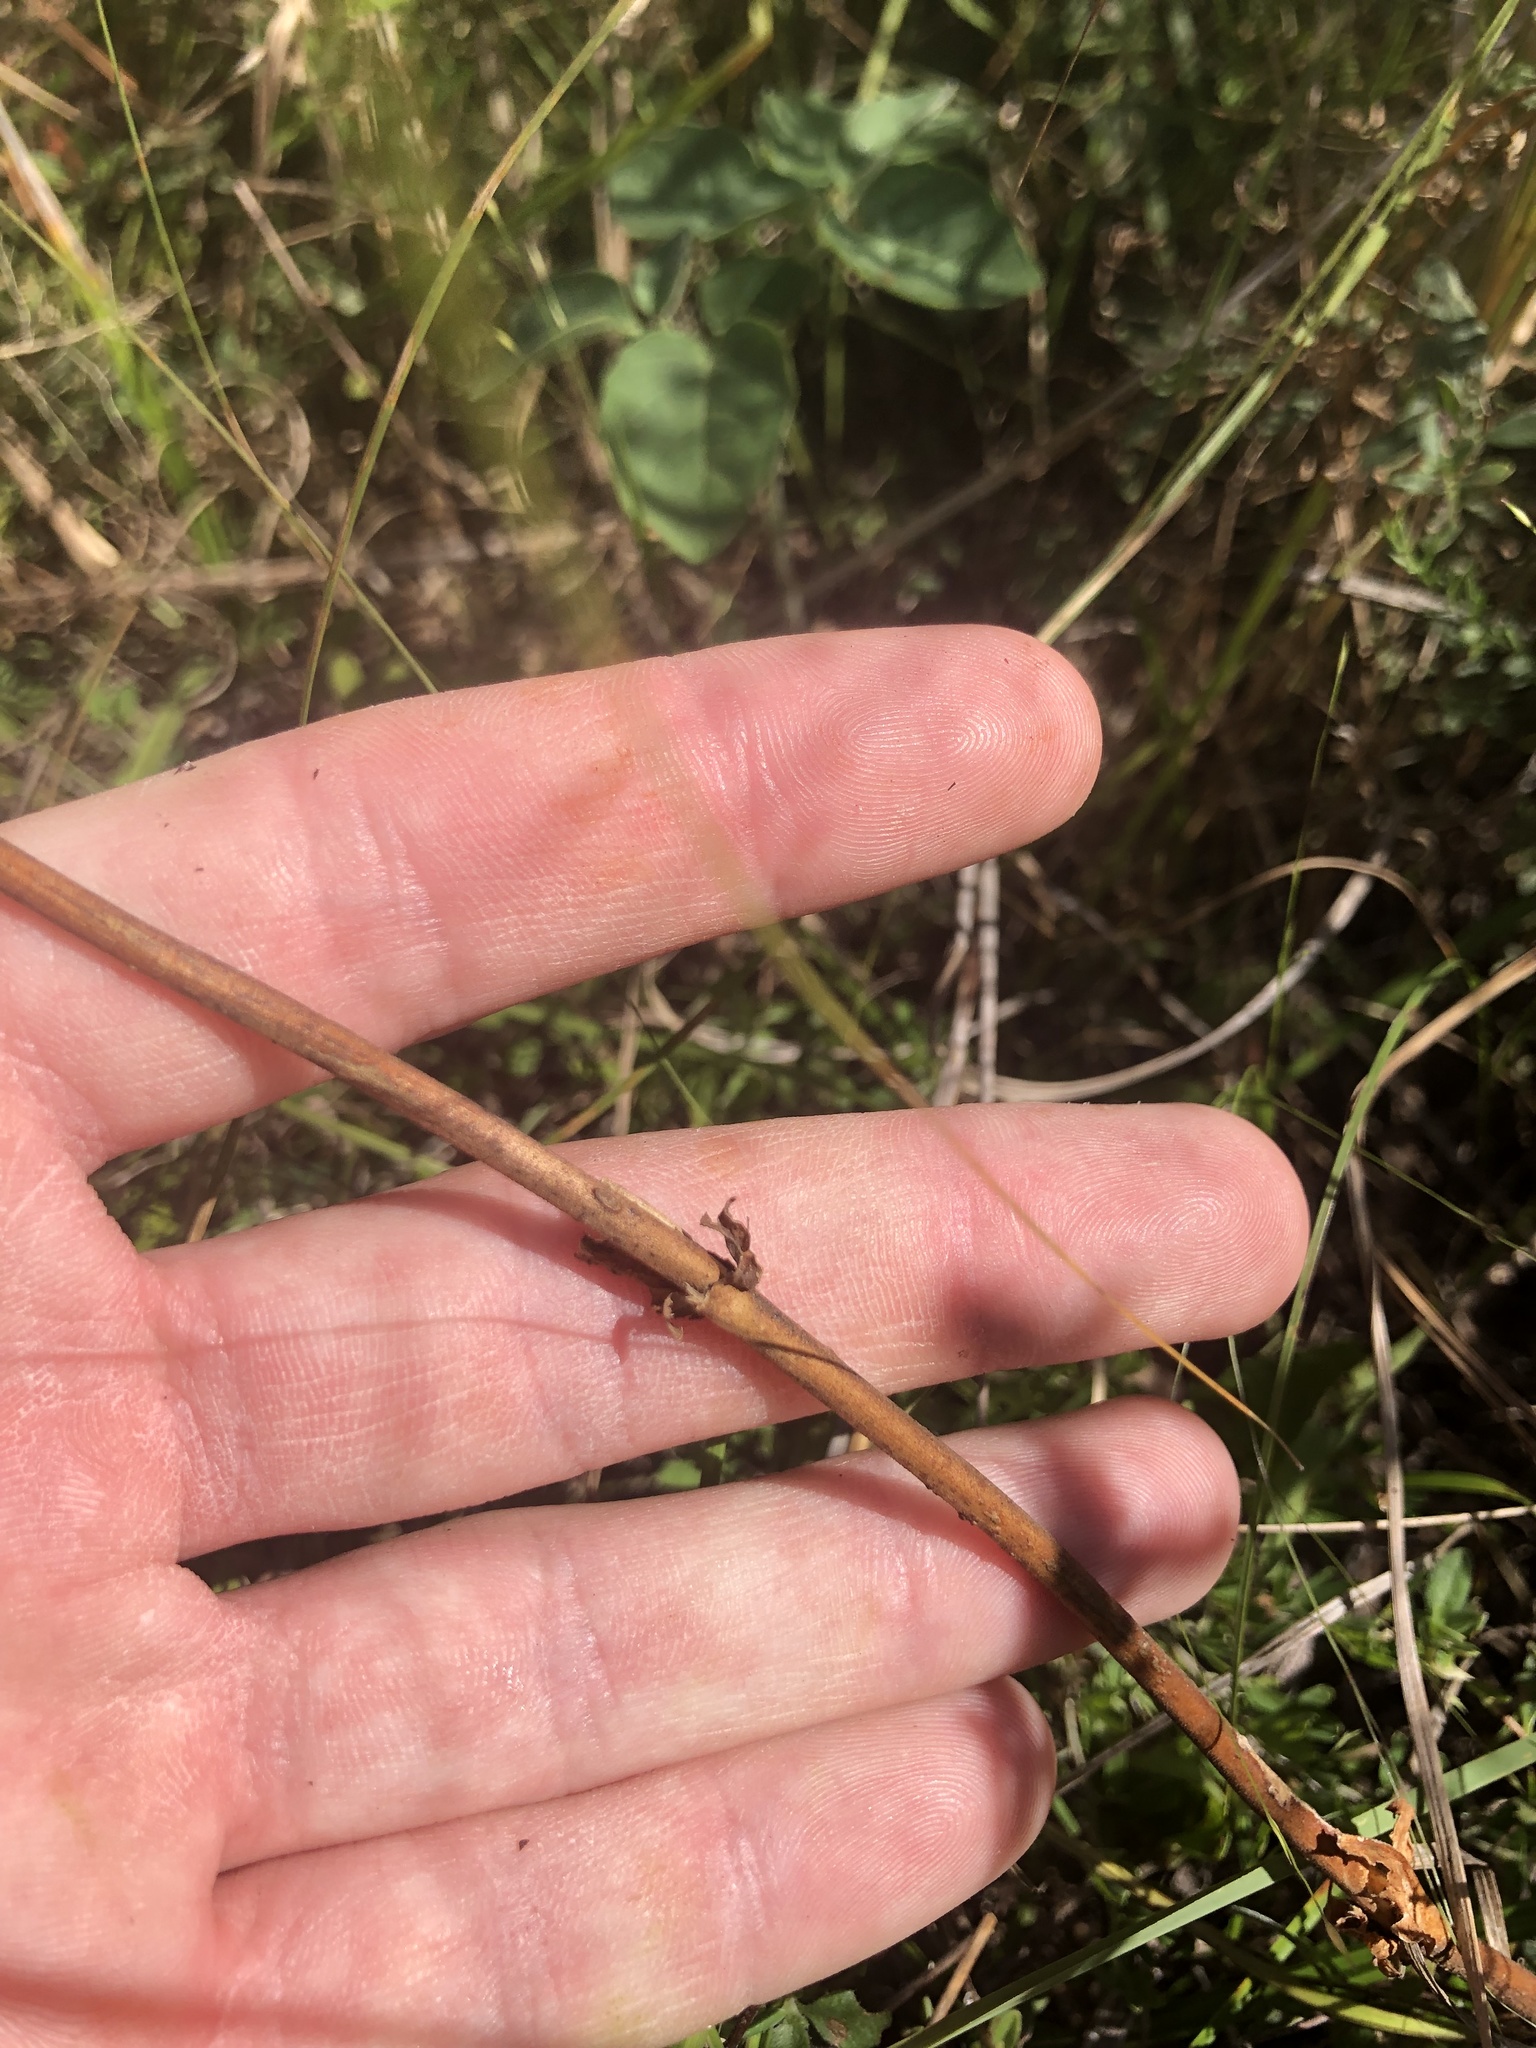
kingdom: Plantae
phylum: Tracheophyta
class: Magnoliopsida
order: Lamiales
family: Plantaginaceae
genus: Penstemon
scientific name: Penstemon laevigatus
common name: Eastern beardtongue
